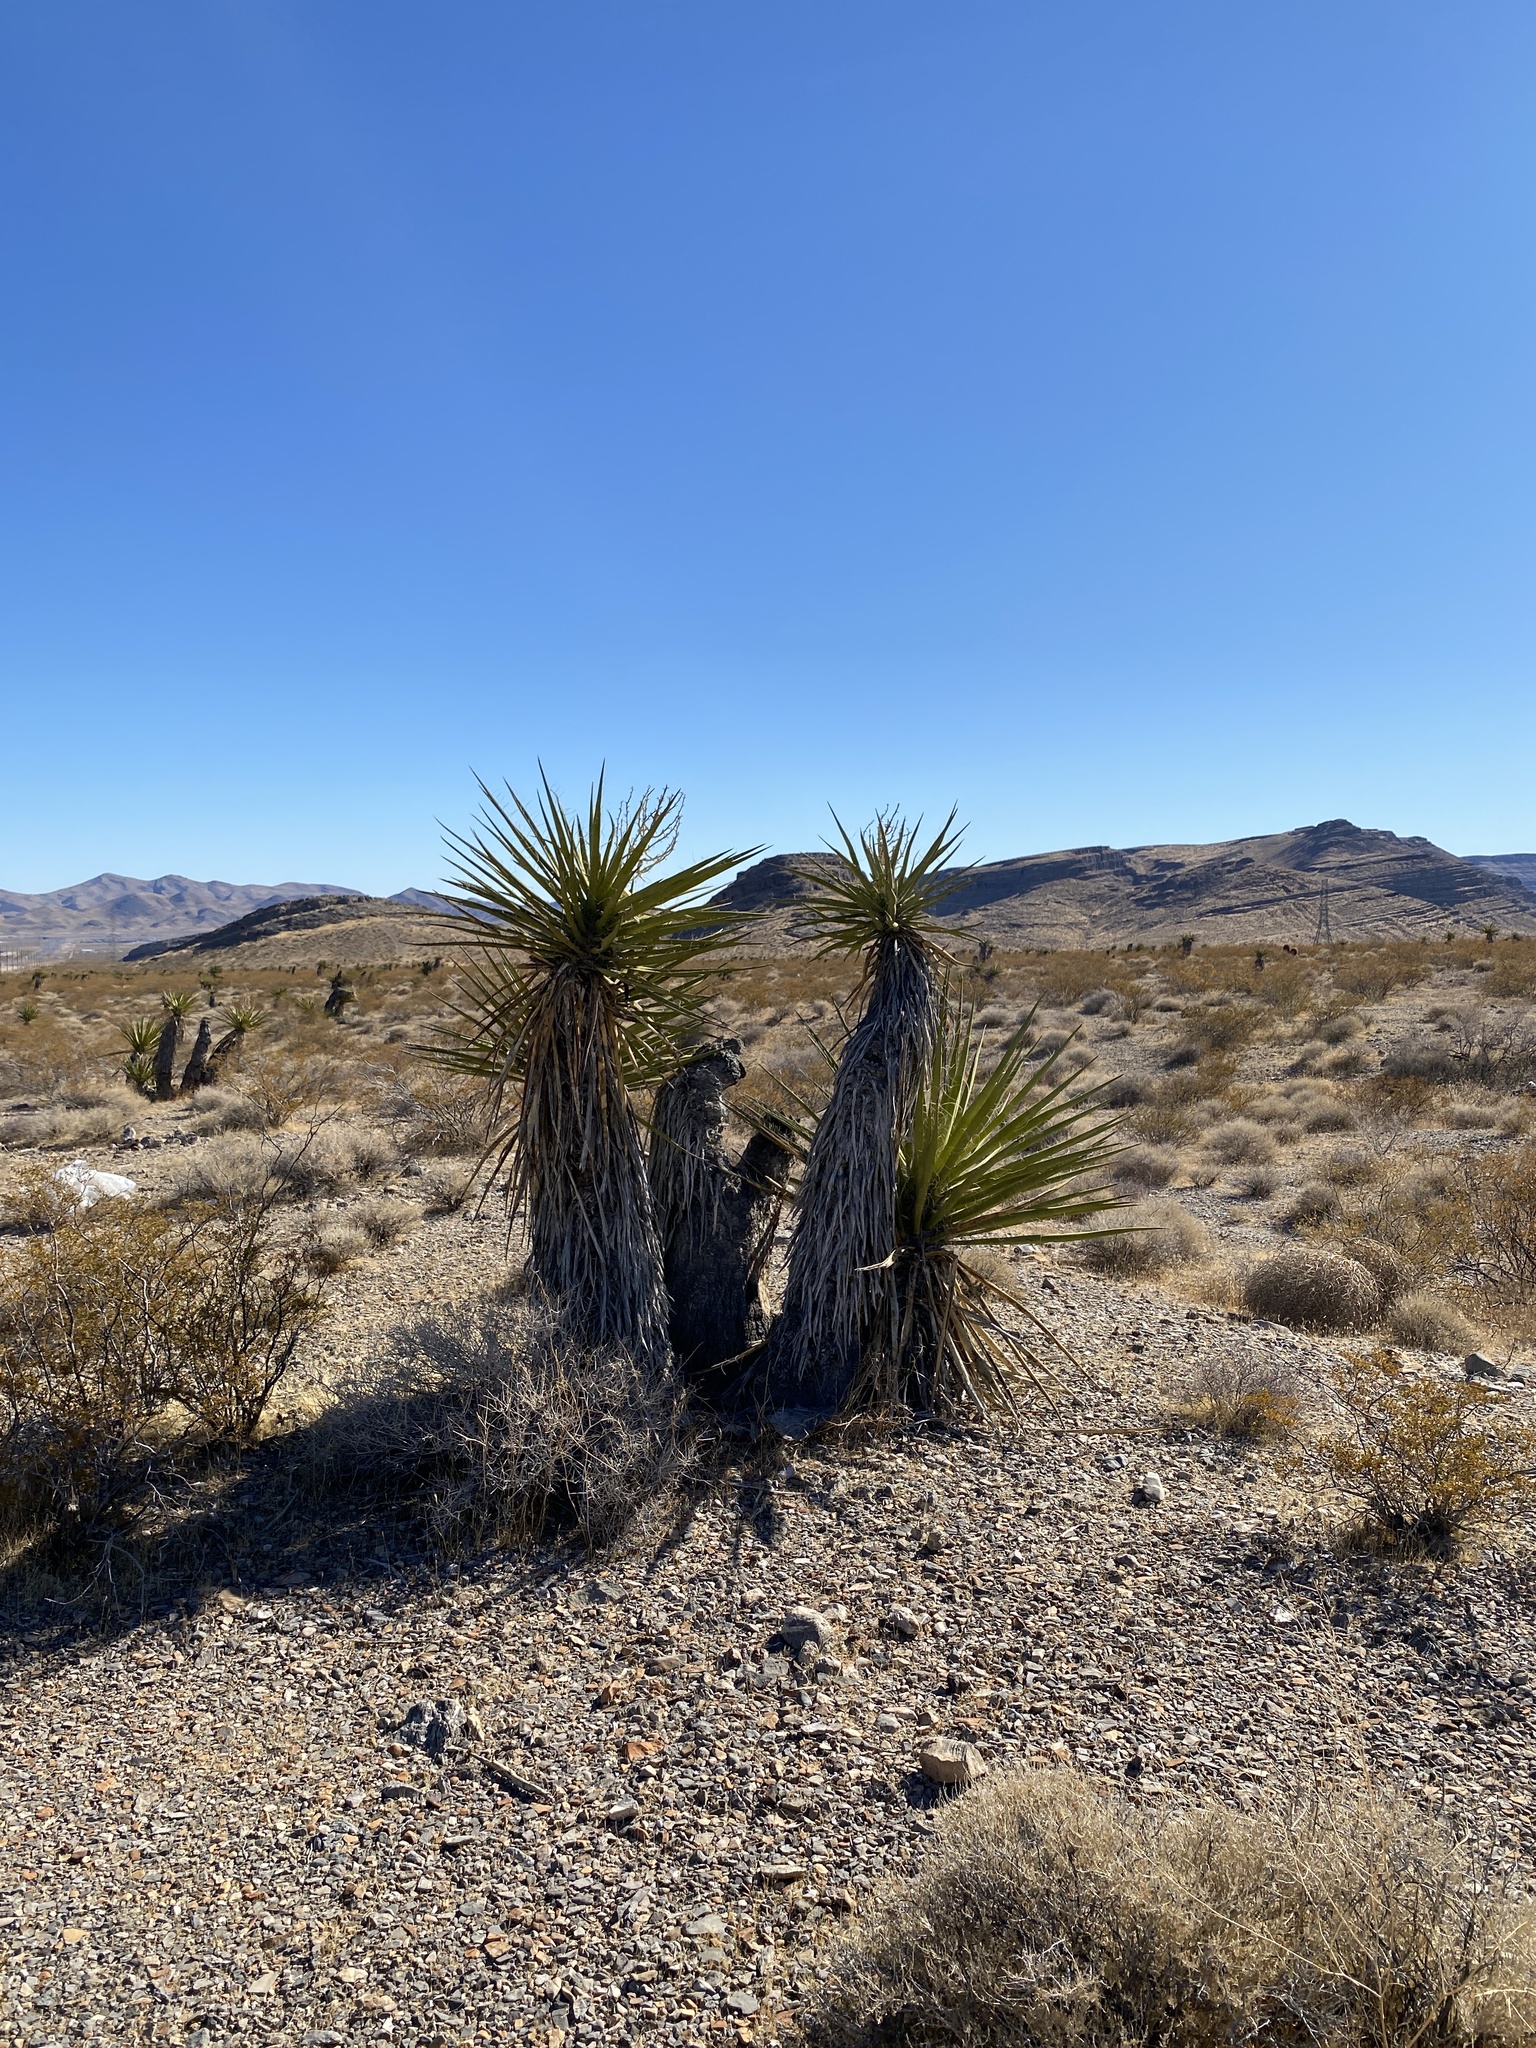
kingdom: Plantae
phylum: Tracheophyta
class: Liliopsida
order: Asparagales
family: Asparagaceae
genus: Yucca
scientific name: Yucca schidigera
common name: Mojave yucca
